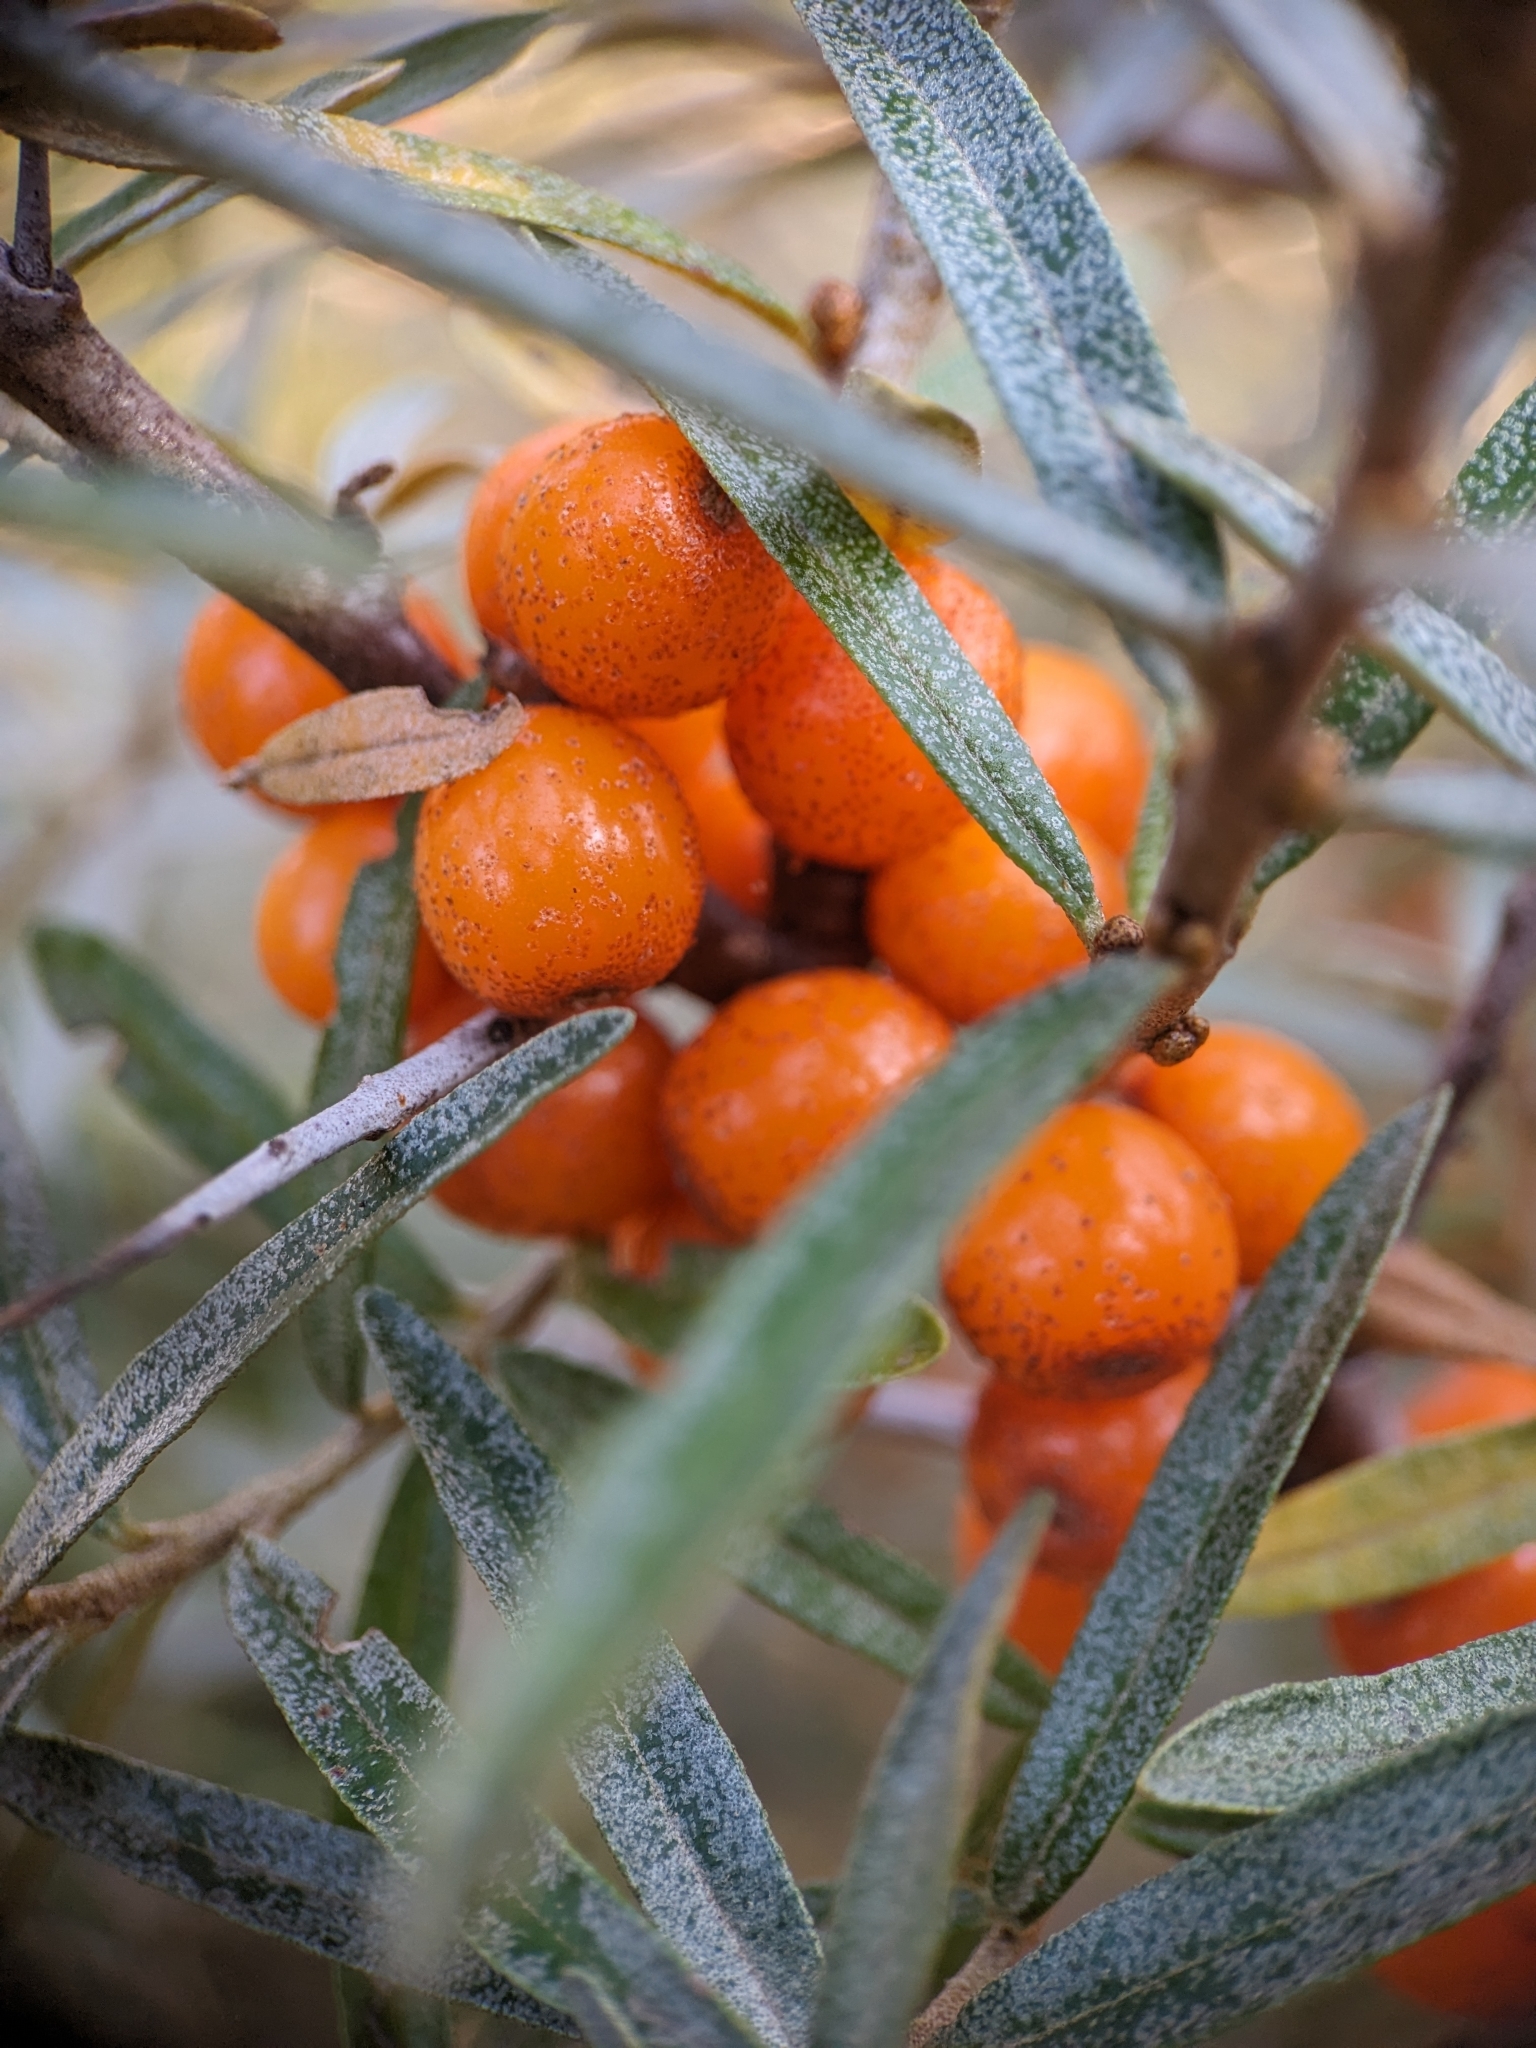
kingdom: Plantae
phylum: Tracheophyta
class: Magnoliopsida
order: Rosales
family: Elaeagnaceae
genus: Hippophae
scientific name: Hippophae rhamnoides
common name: Sea-buckthorn
